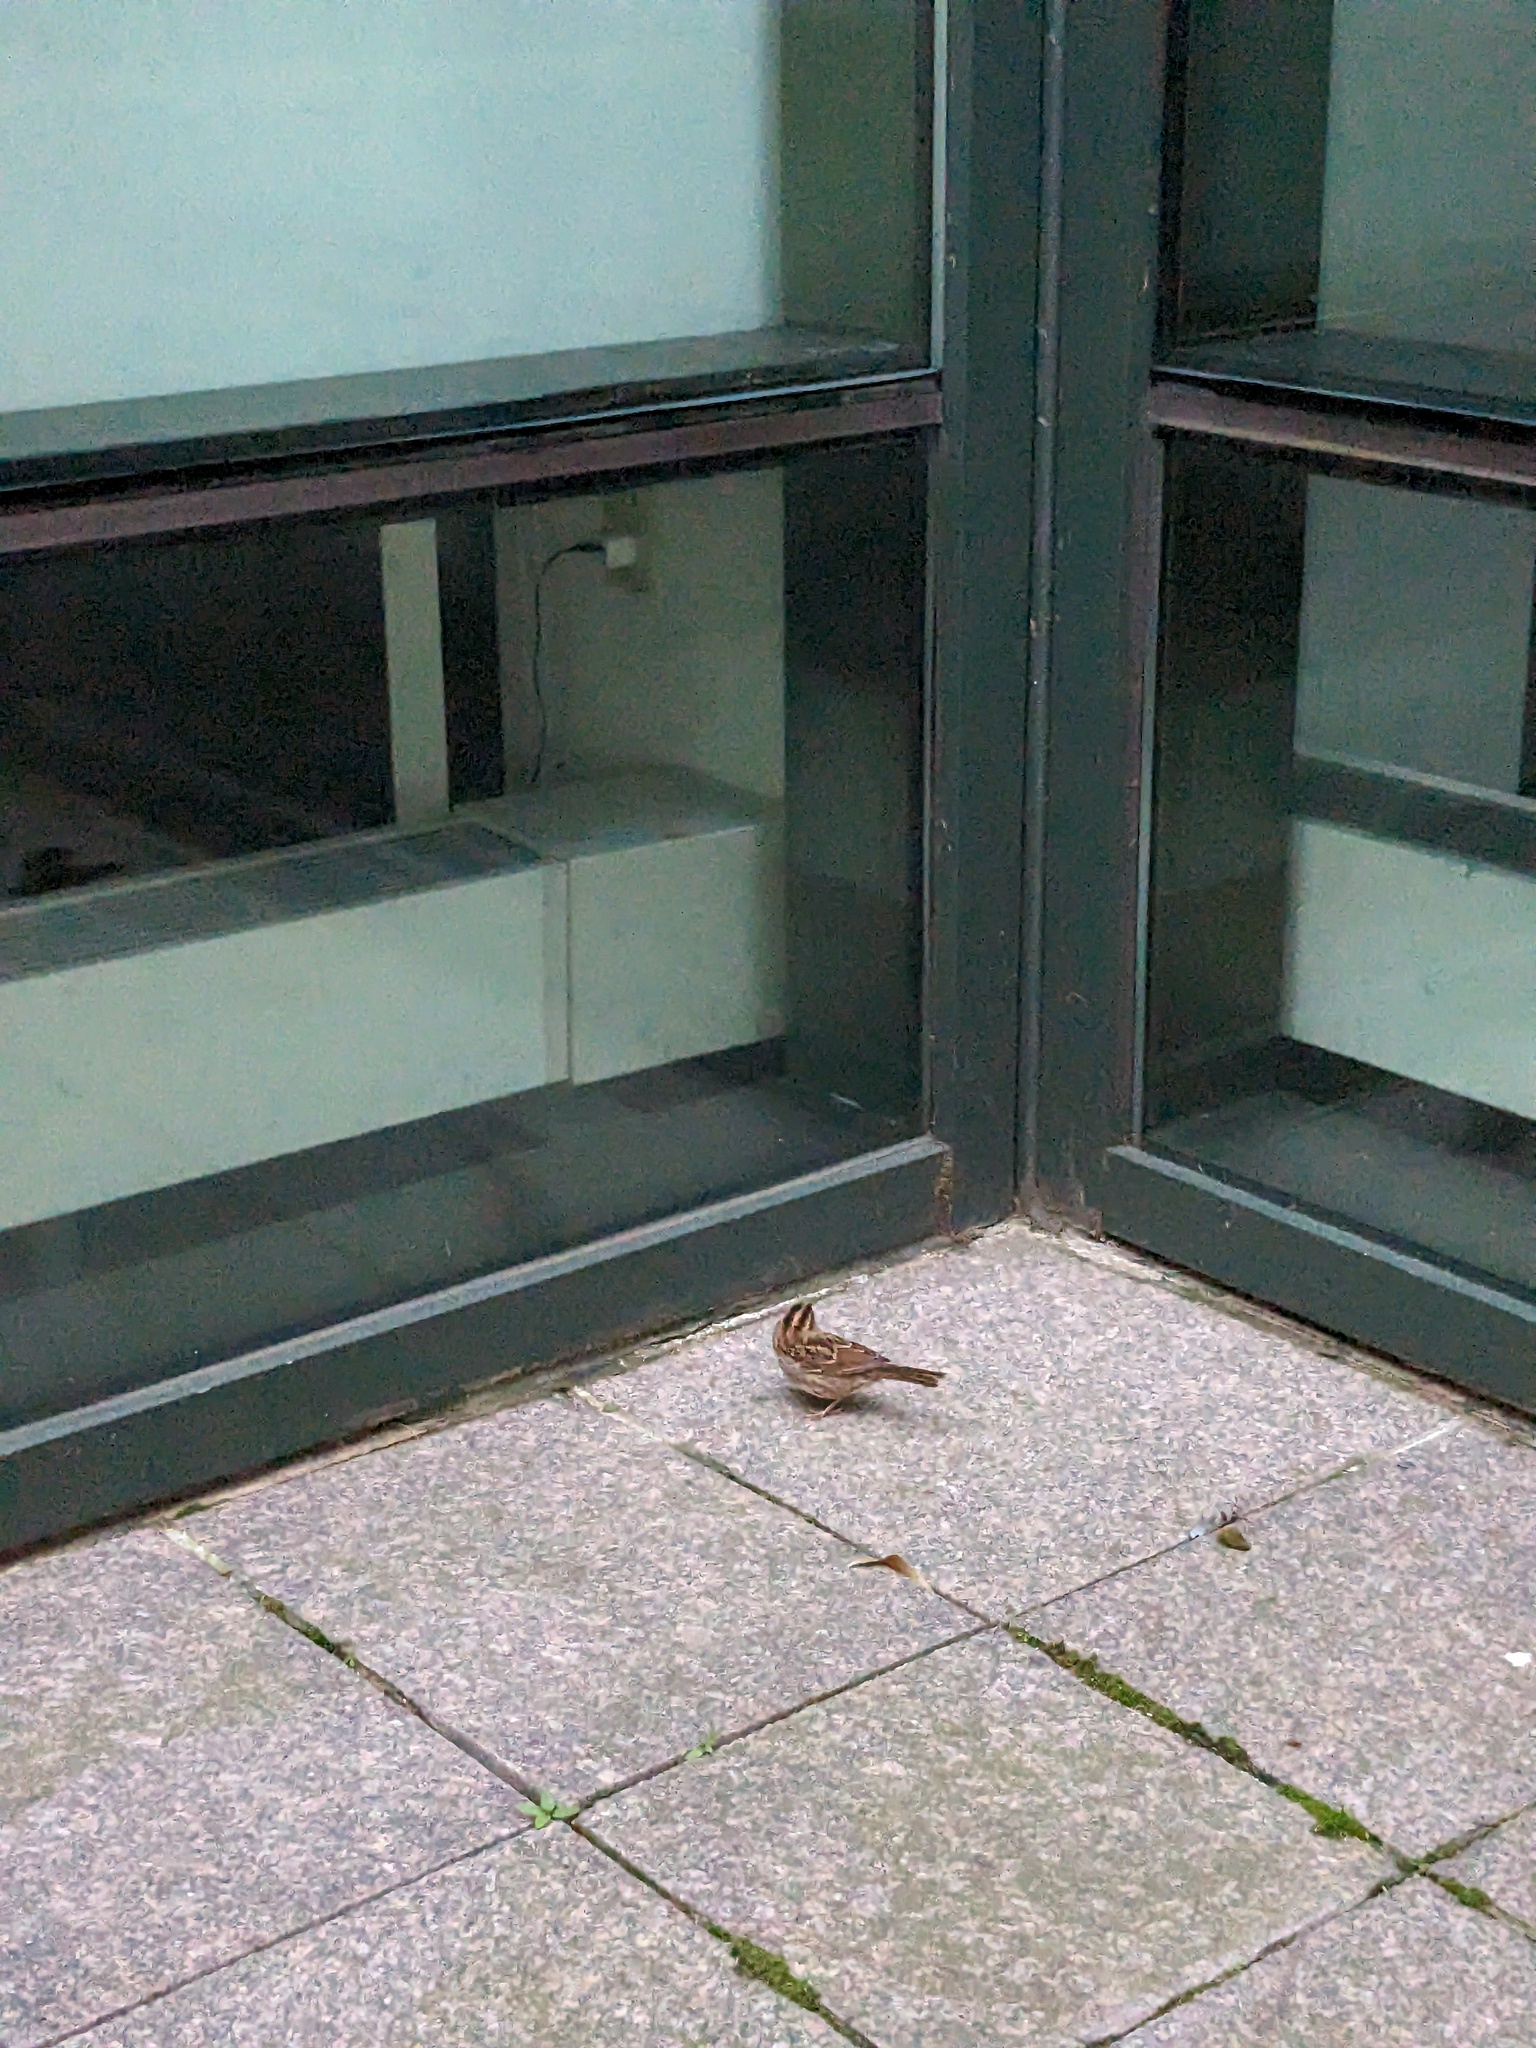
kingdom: Animalia
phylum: Chordata
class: Aves
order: Passeriformes
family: Passerellidae
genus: Zonotrichia
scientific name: Zonotrichia albicollis
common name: White-throated sparrow
